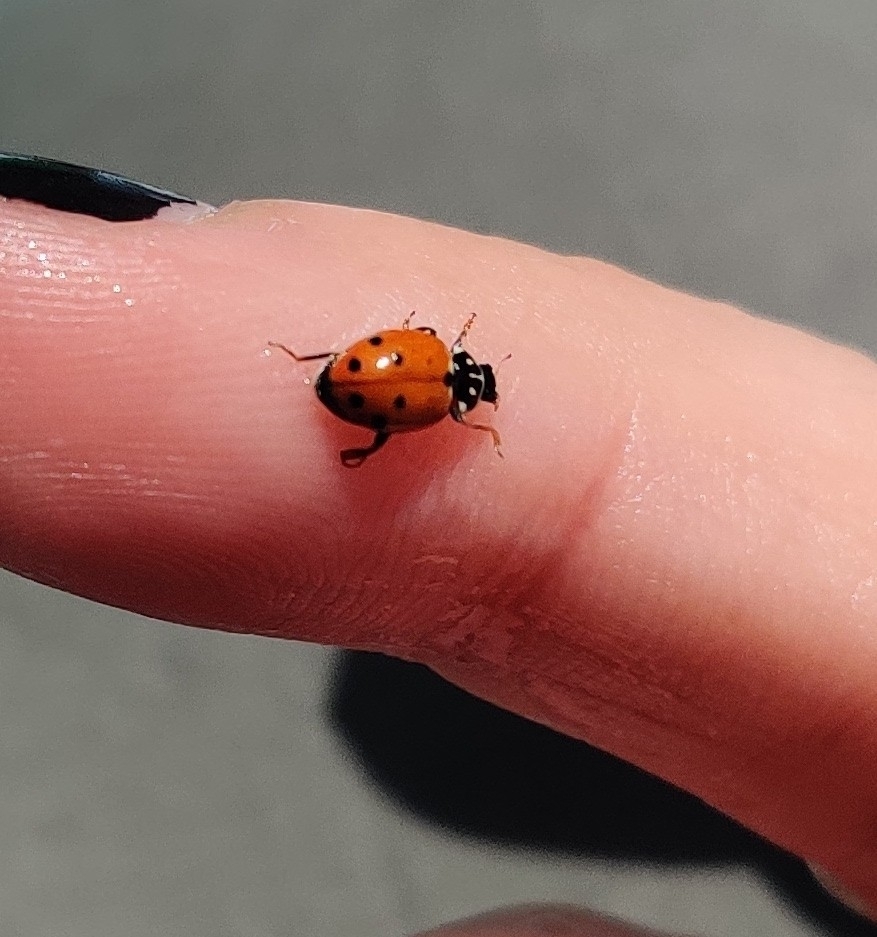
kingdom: Animalia
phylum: Arthropoda
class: Insecta
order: Coleoptera
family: Coccinellidae
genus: Hippodamia
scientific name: Hippodamia variegata
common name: Ladybird beetle
